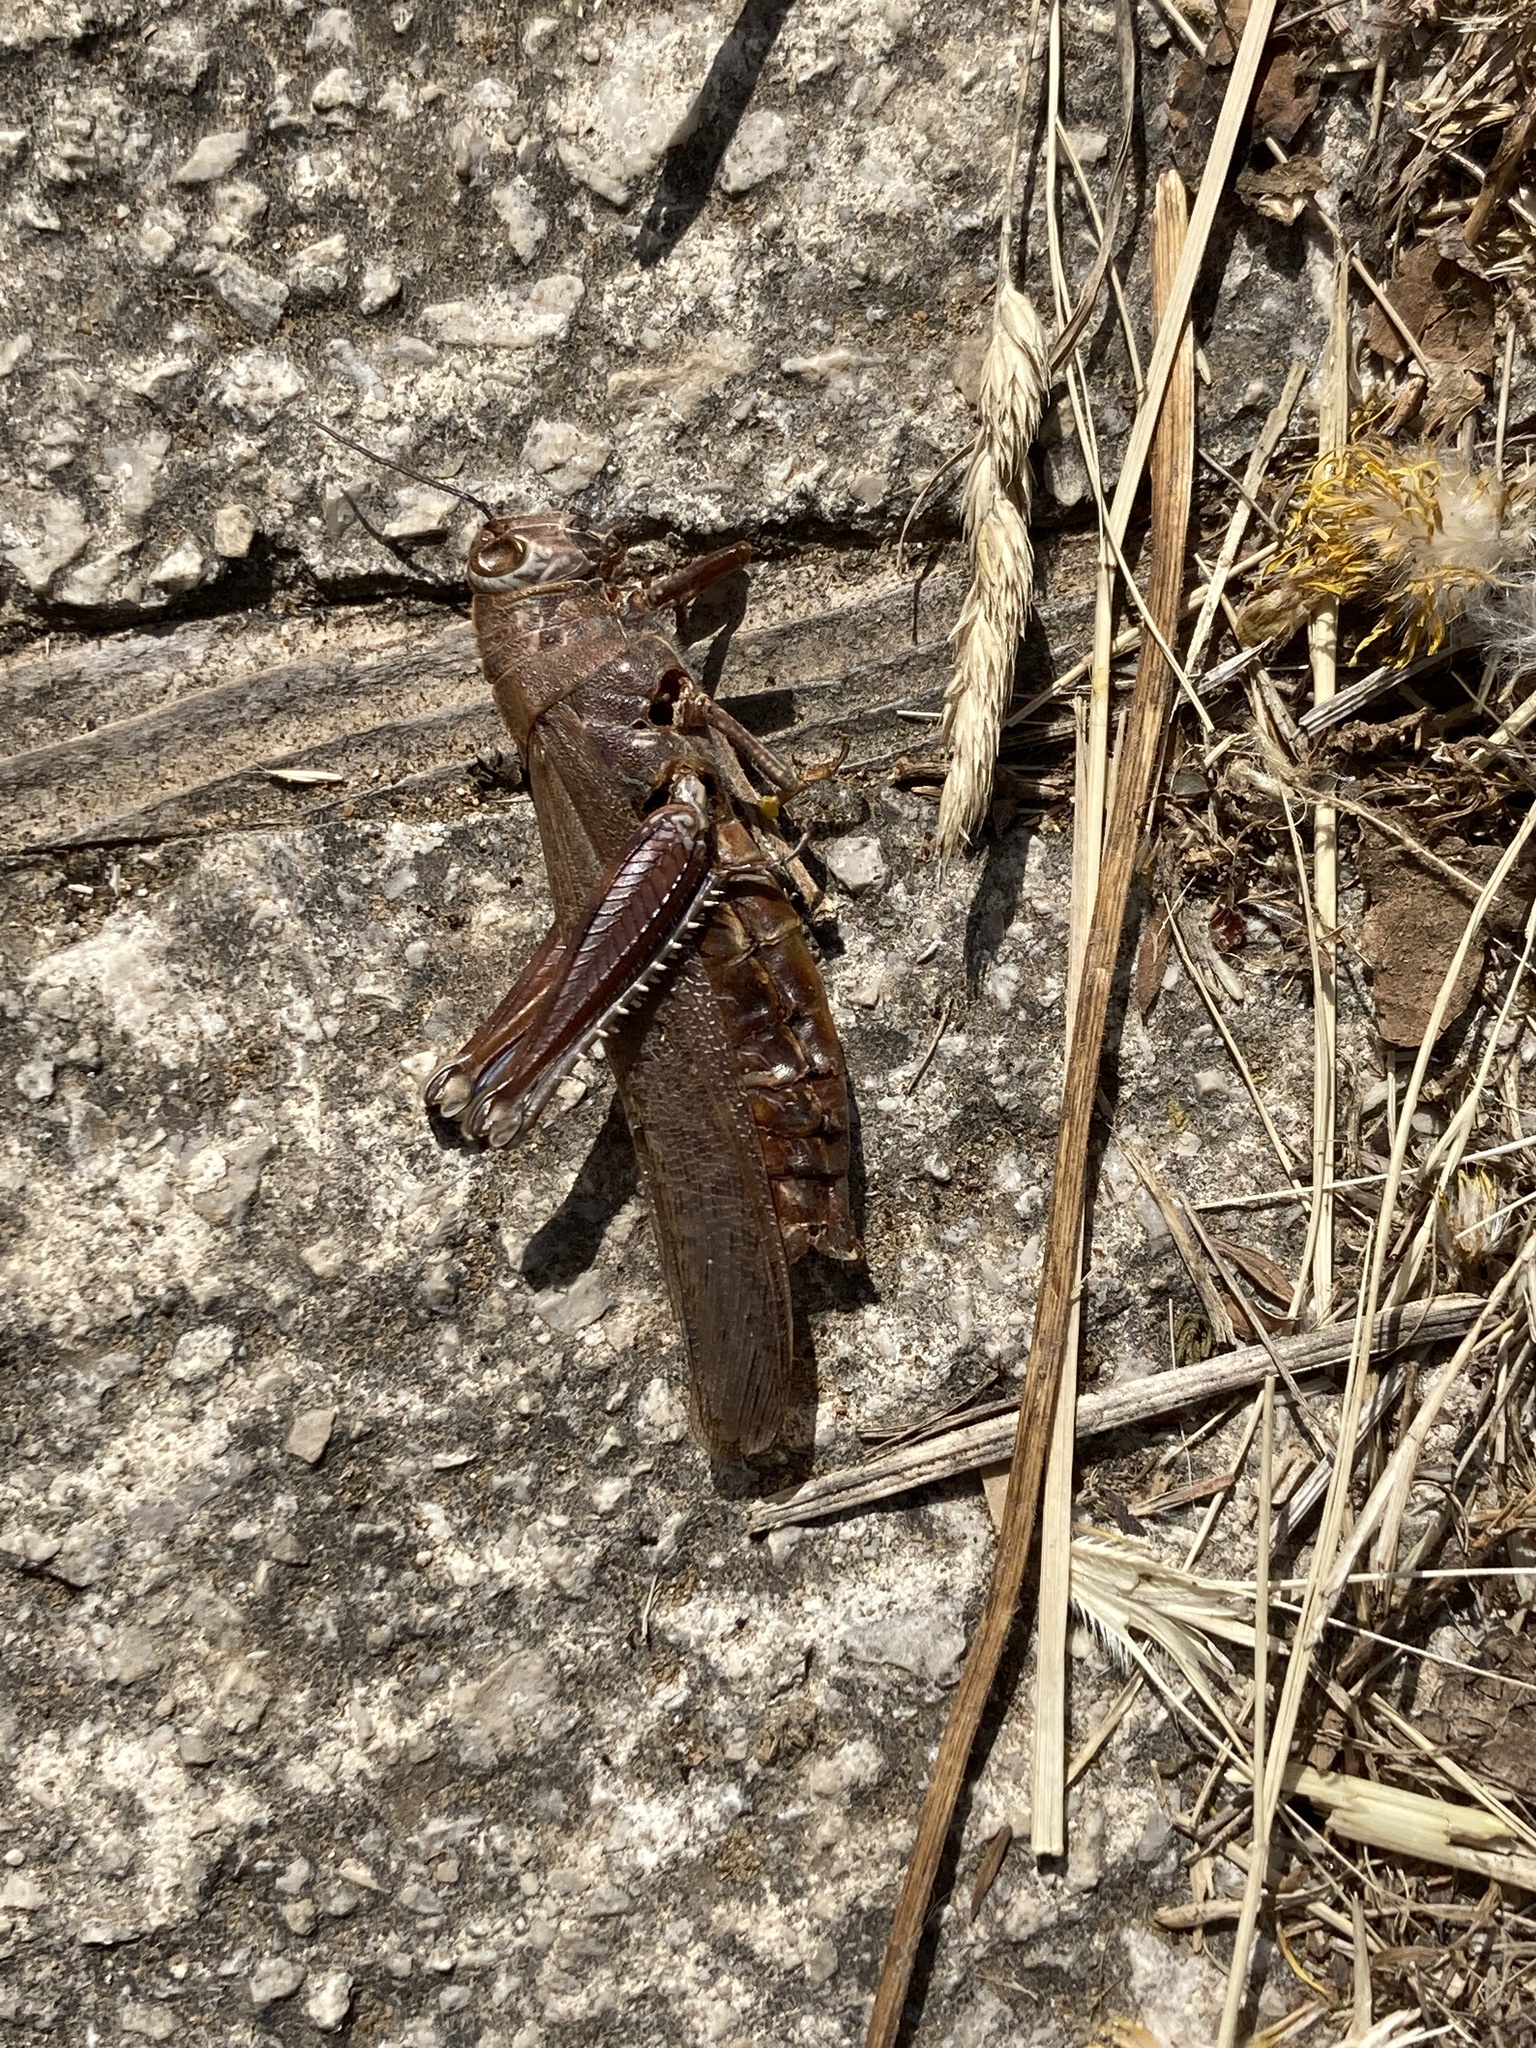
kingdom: Animalia
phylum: Arthropoda
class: Insecta
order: Orthoptera
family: Acrididae
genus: Anacridium
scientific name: Anacridium aegyptium
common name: Egyptian grasshopper
